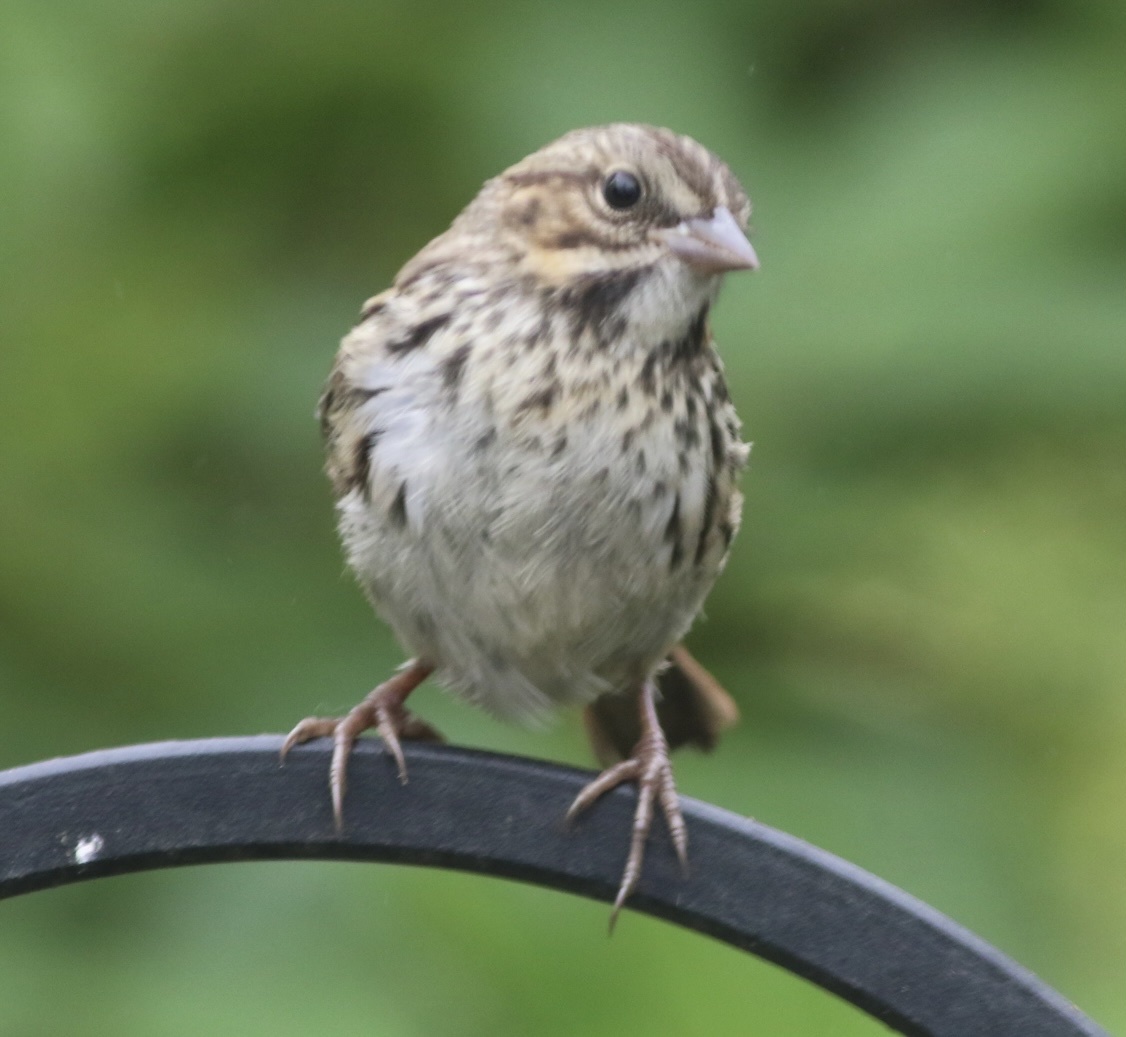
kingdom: Animalia
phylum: Chordata
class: Aves
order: Passeriformes
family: Passerellidae
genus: Melospiza
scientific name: Melospiza melodia
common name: Song sparrow
